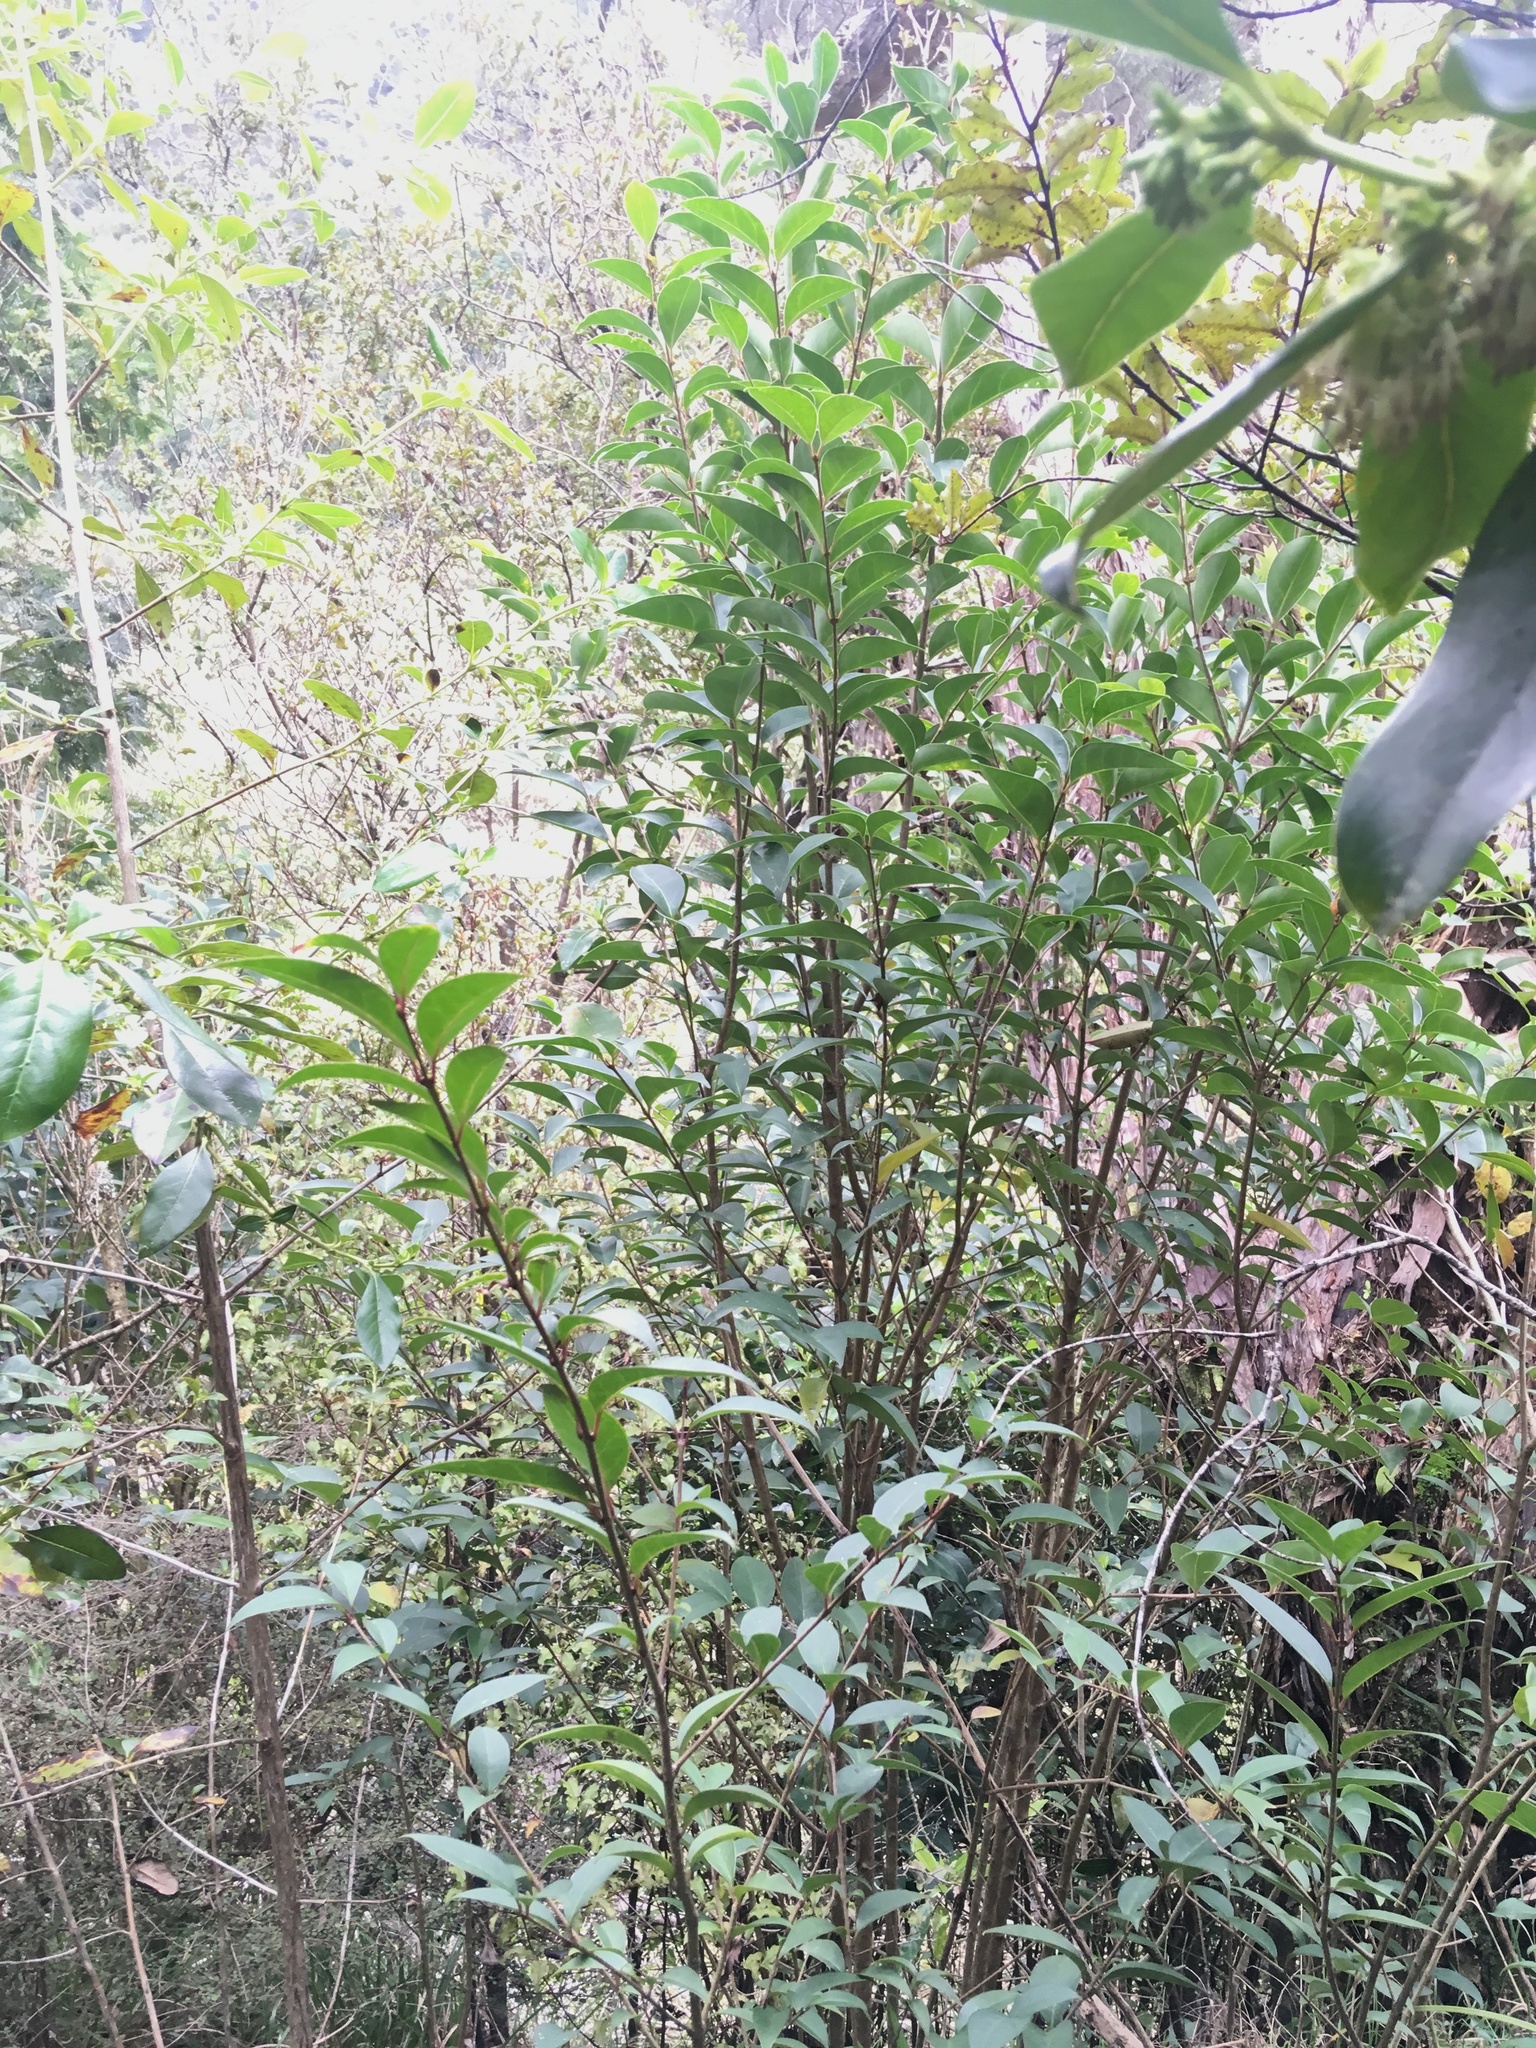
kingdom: Plantae
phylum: Tracheophyta
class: Magnoliopsida
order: Lamiales
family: Oleaceae
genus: Ligustrum
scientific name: Ligustrum lucidum
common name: Glossy privet
